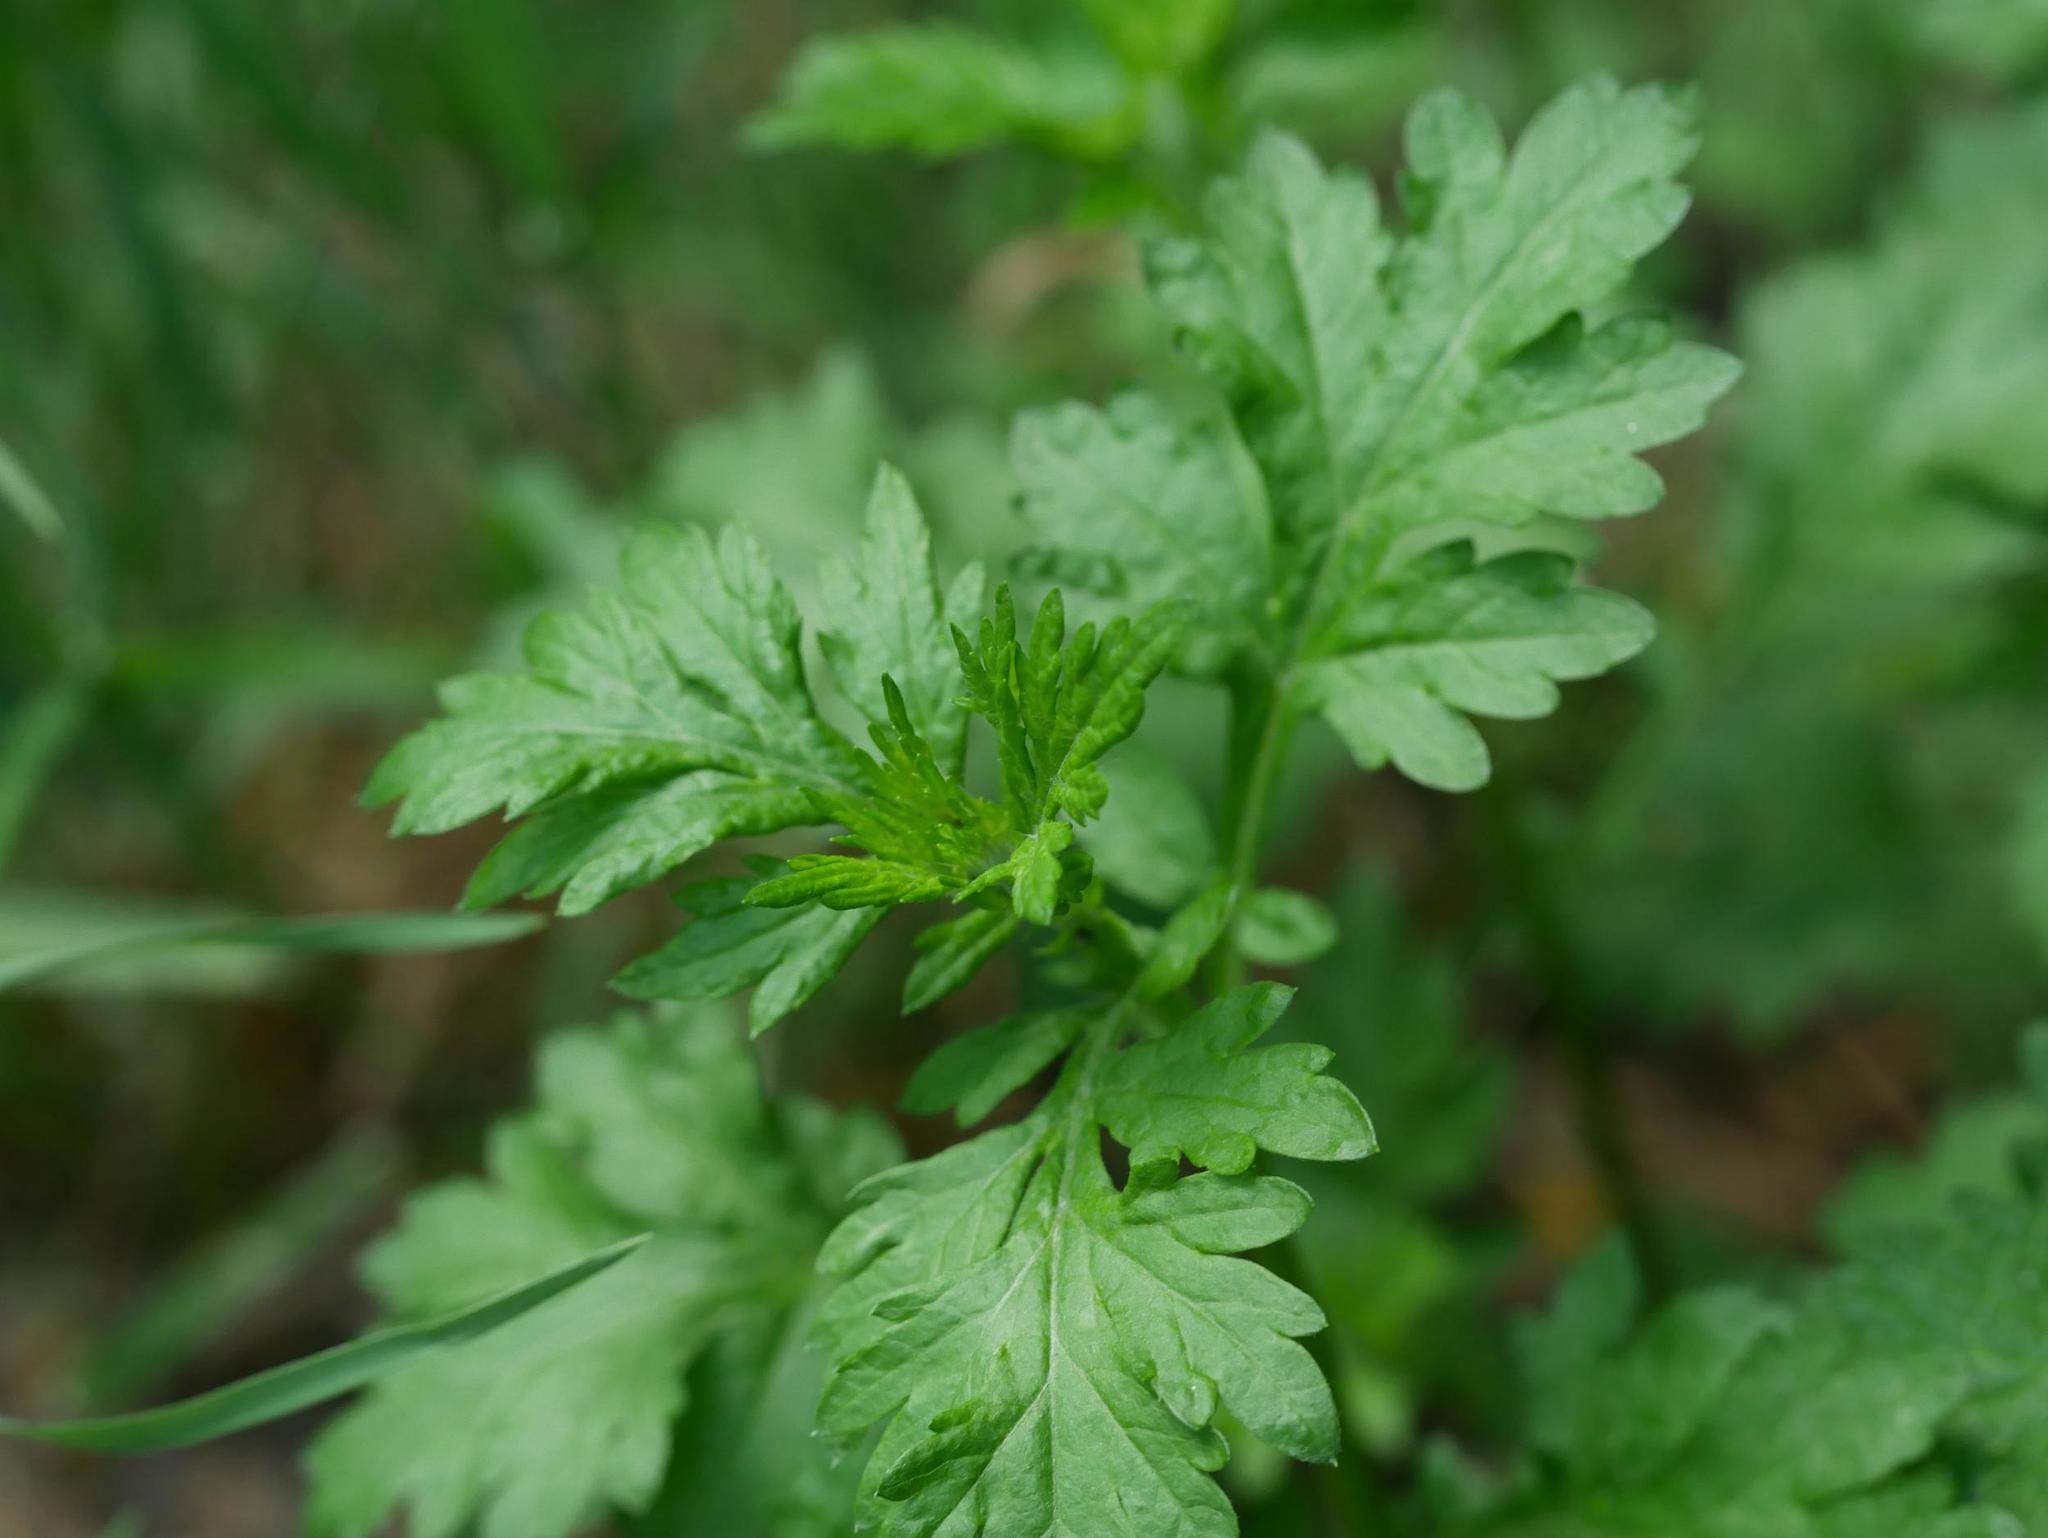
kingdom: Plantae
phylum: Tracheophyta
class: Magnoliopsida
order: Asterales
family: Asteraceae
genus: Artemisia
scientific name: Artemisia vulgaris
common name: Mugwort
